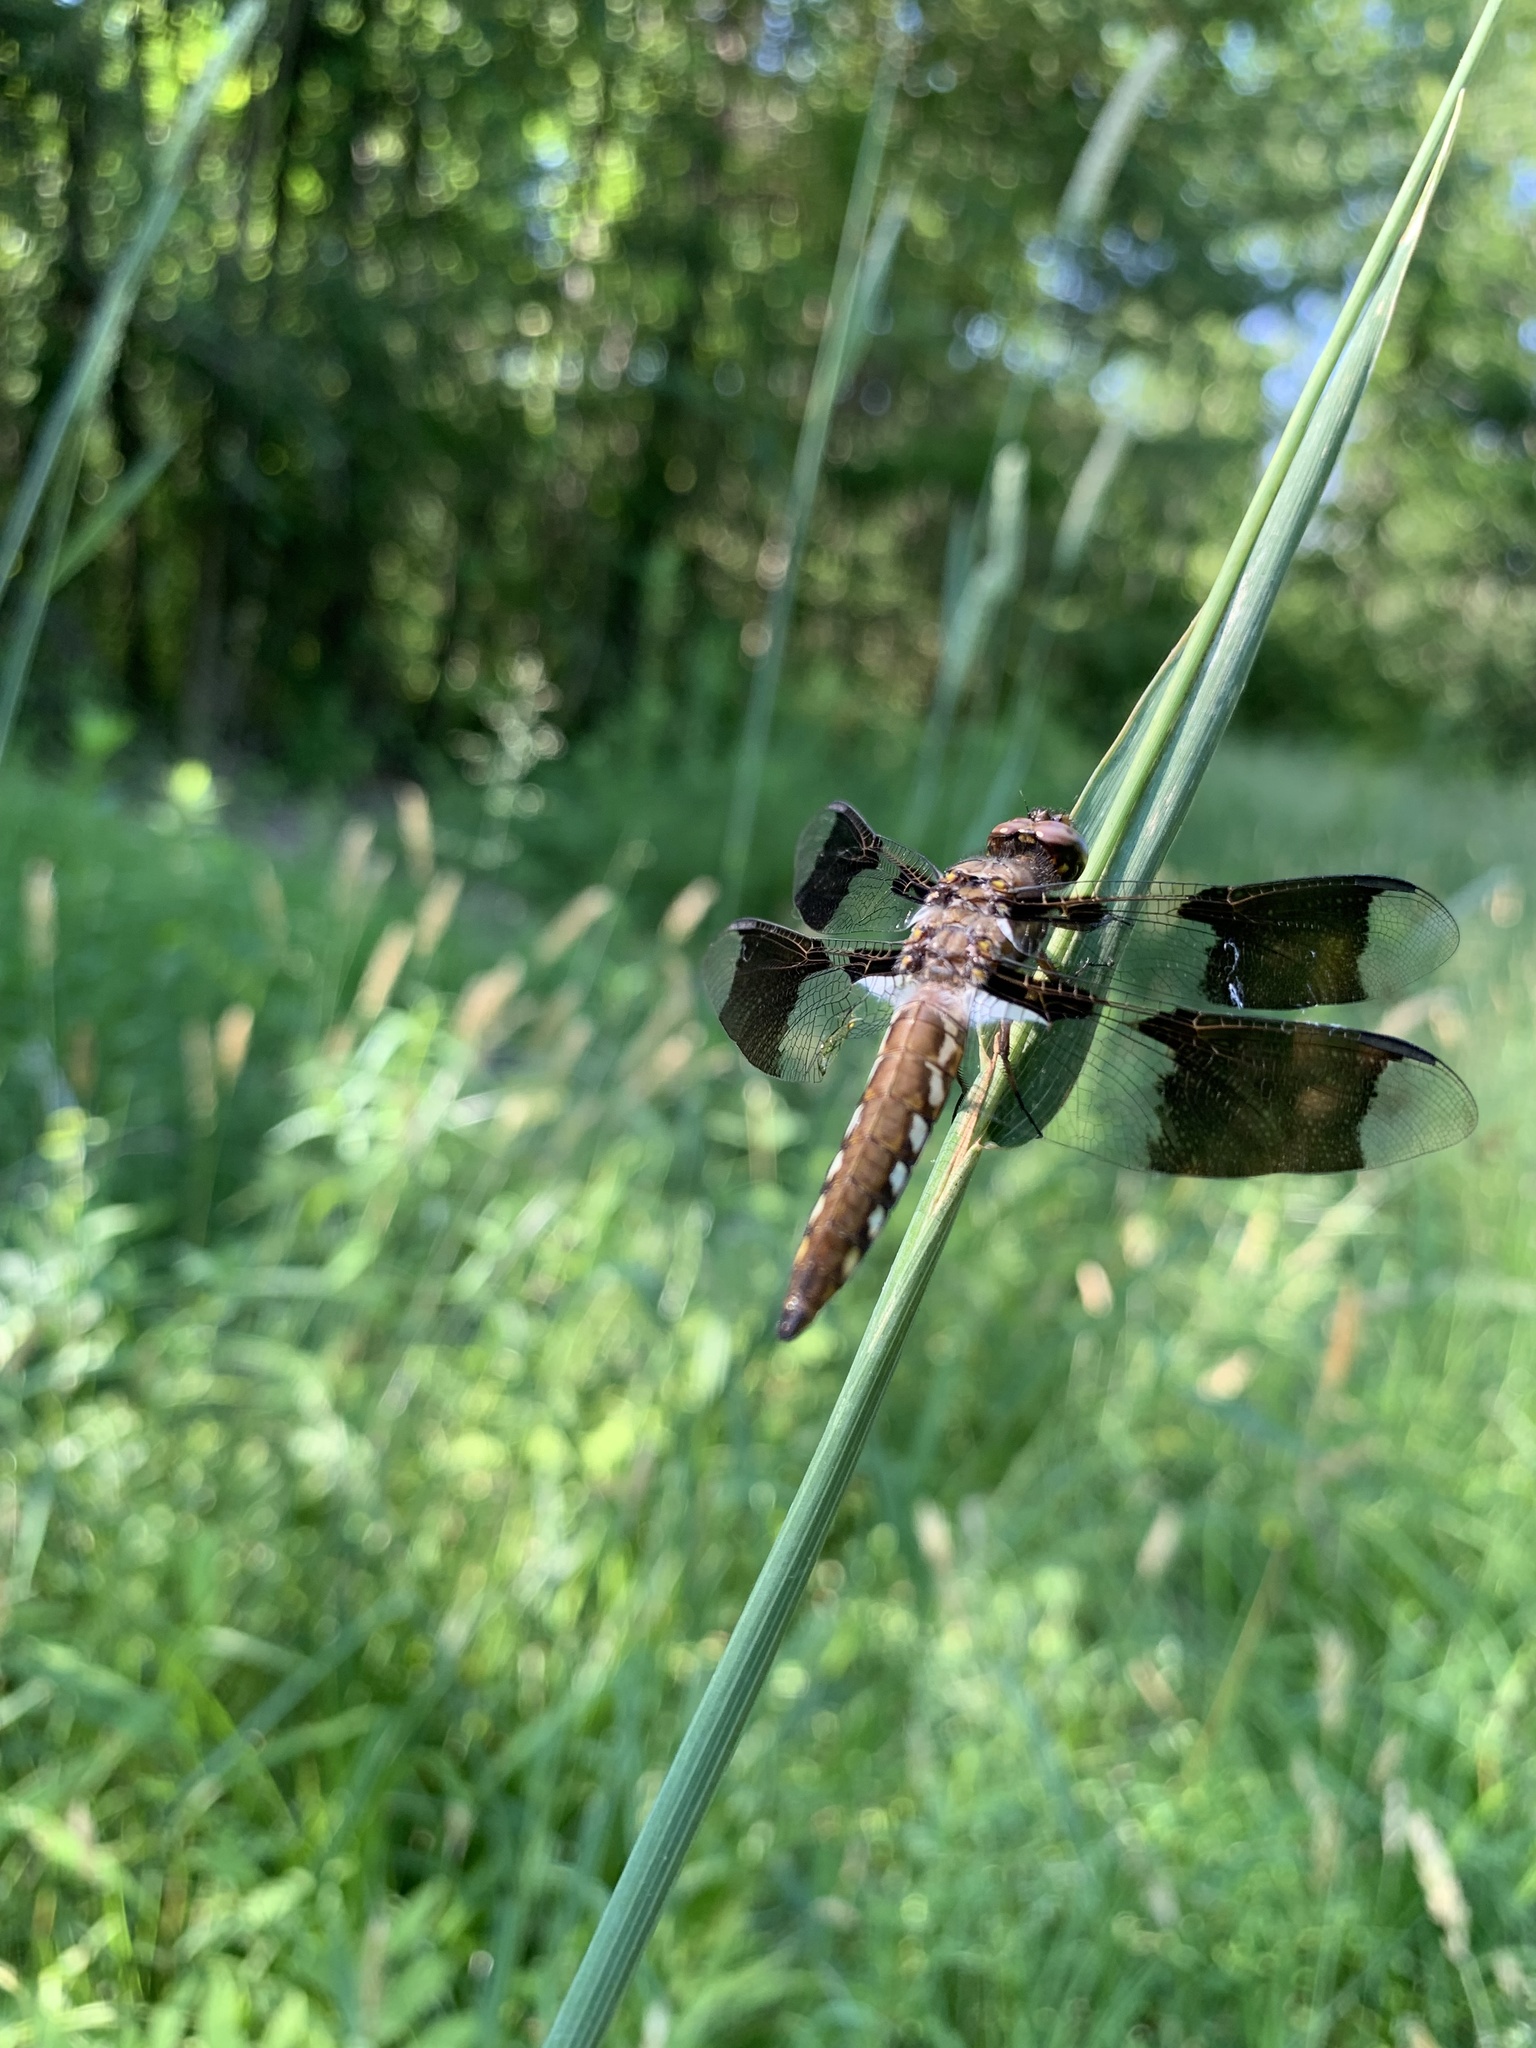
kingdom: Animalia
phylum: Arthropoda
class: Insecta
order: Odonata
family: Libellulidae
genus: Plathemis
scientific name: Plathemis lydia
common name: Common whitetail
